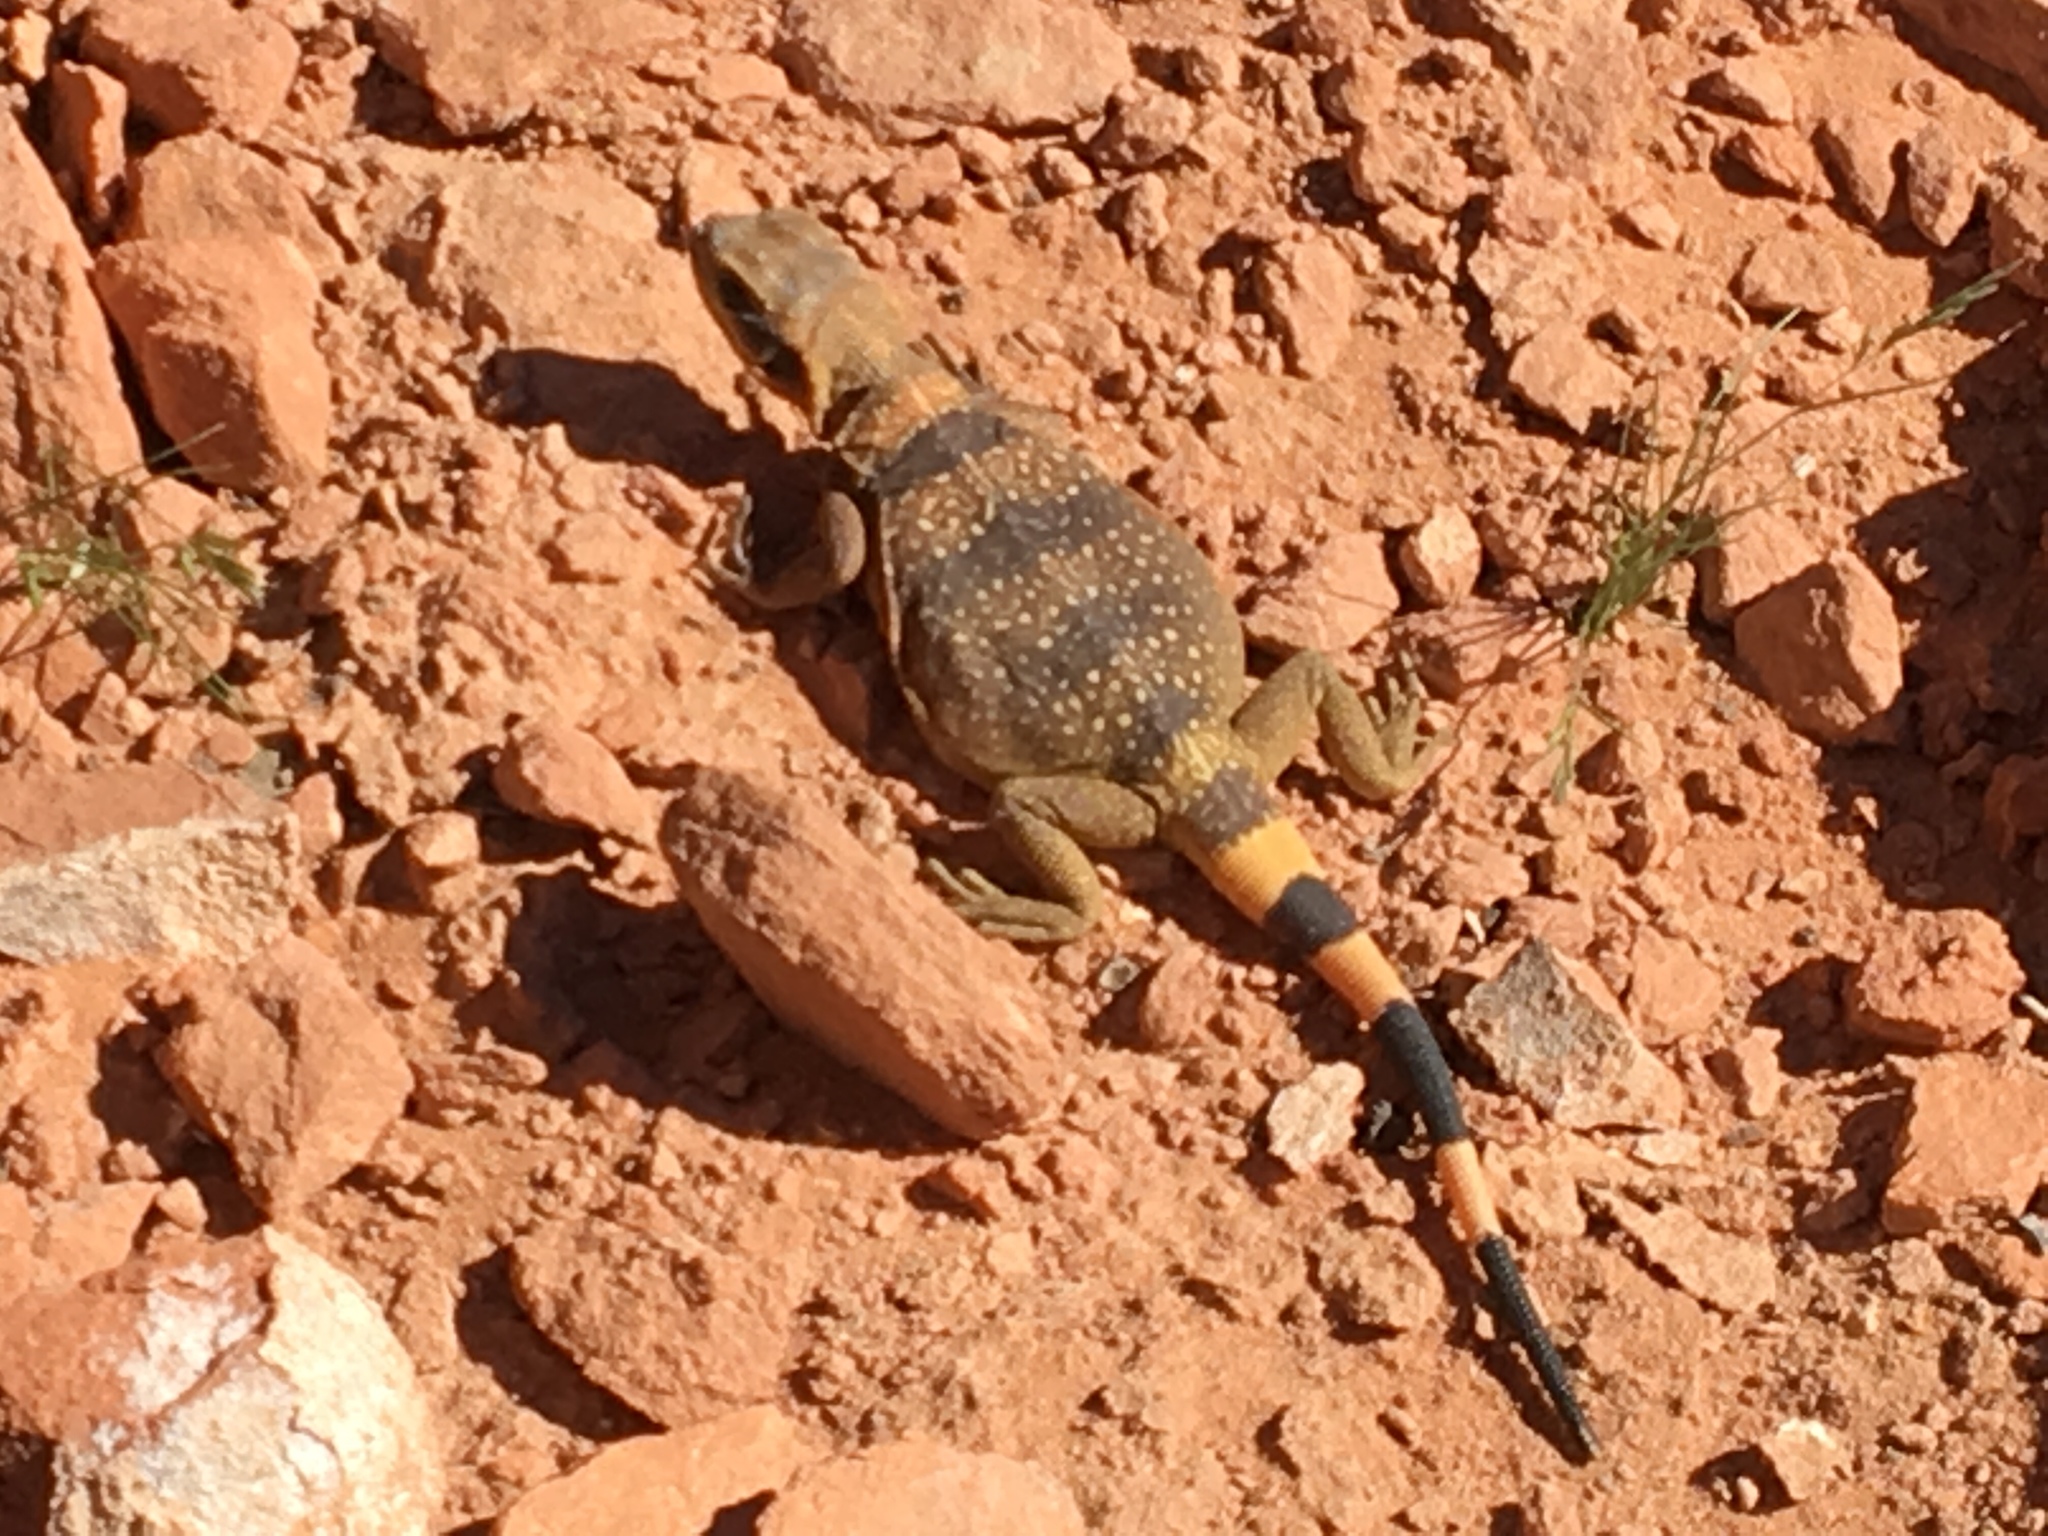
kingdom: Animalia
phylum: Chordata
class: Squamata
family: Iguanidae
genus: Sauromalus
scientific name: Sauromalus ater
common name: Northern chuckwalla
